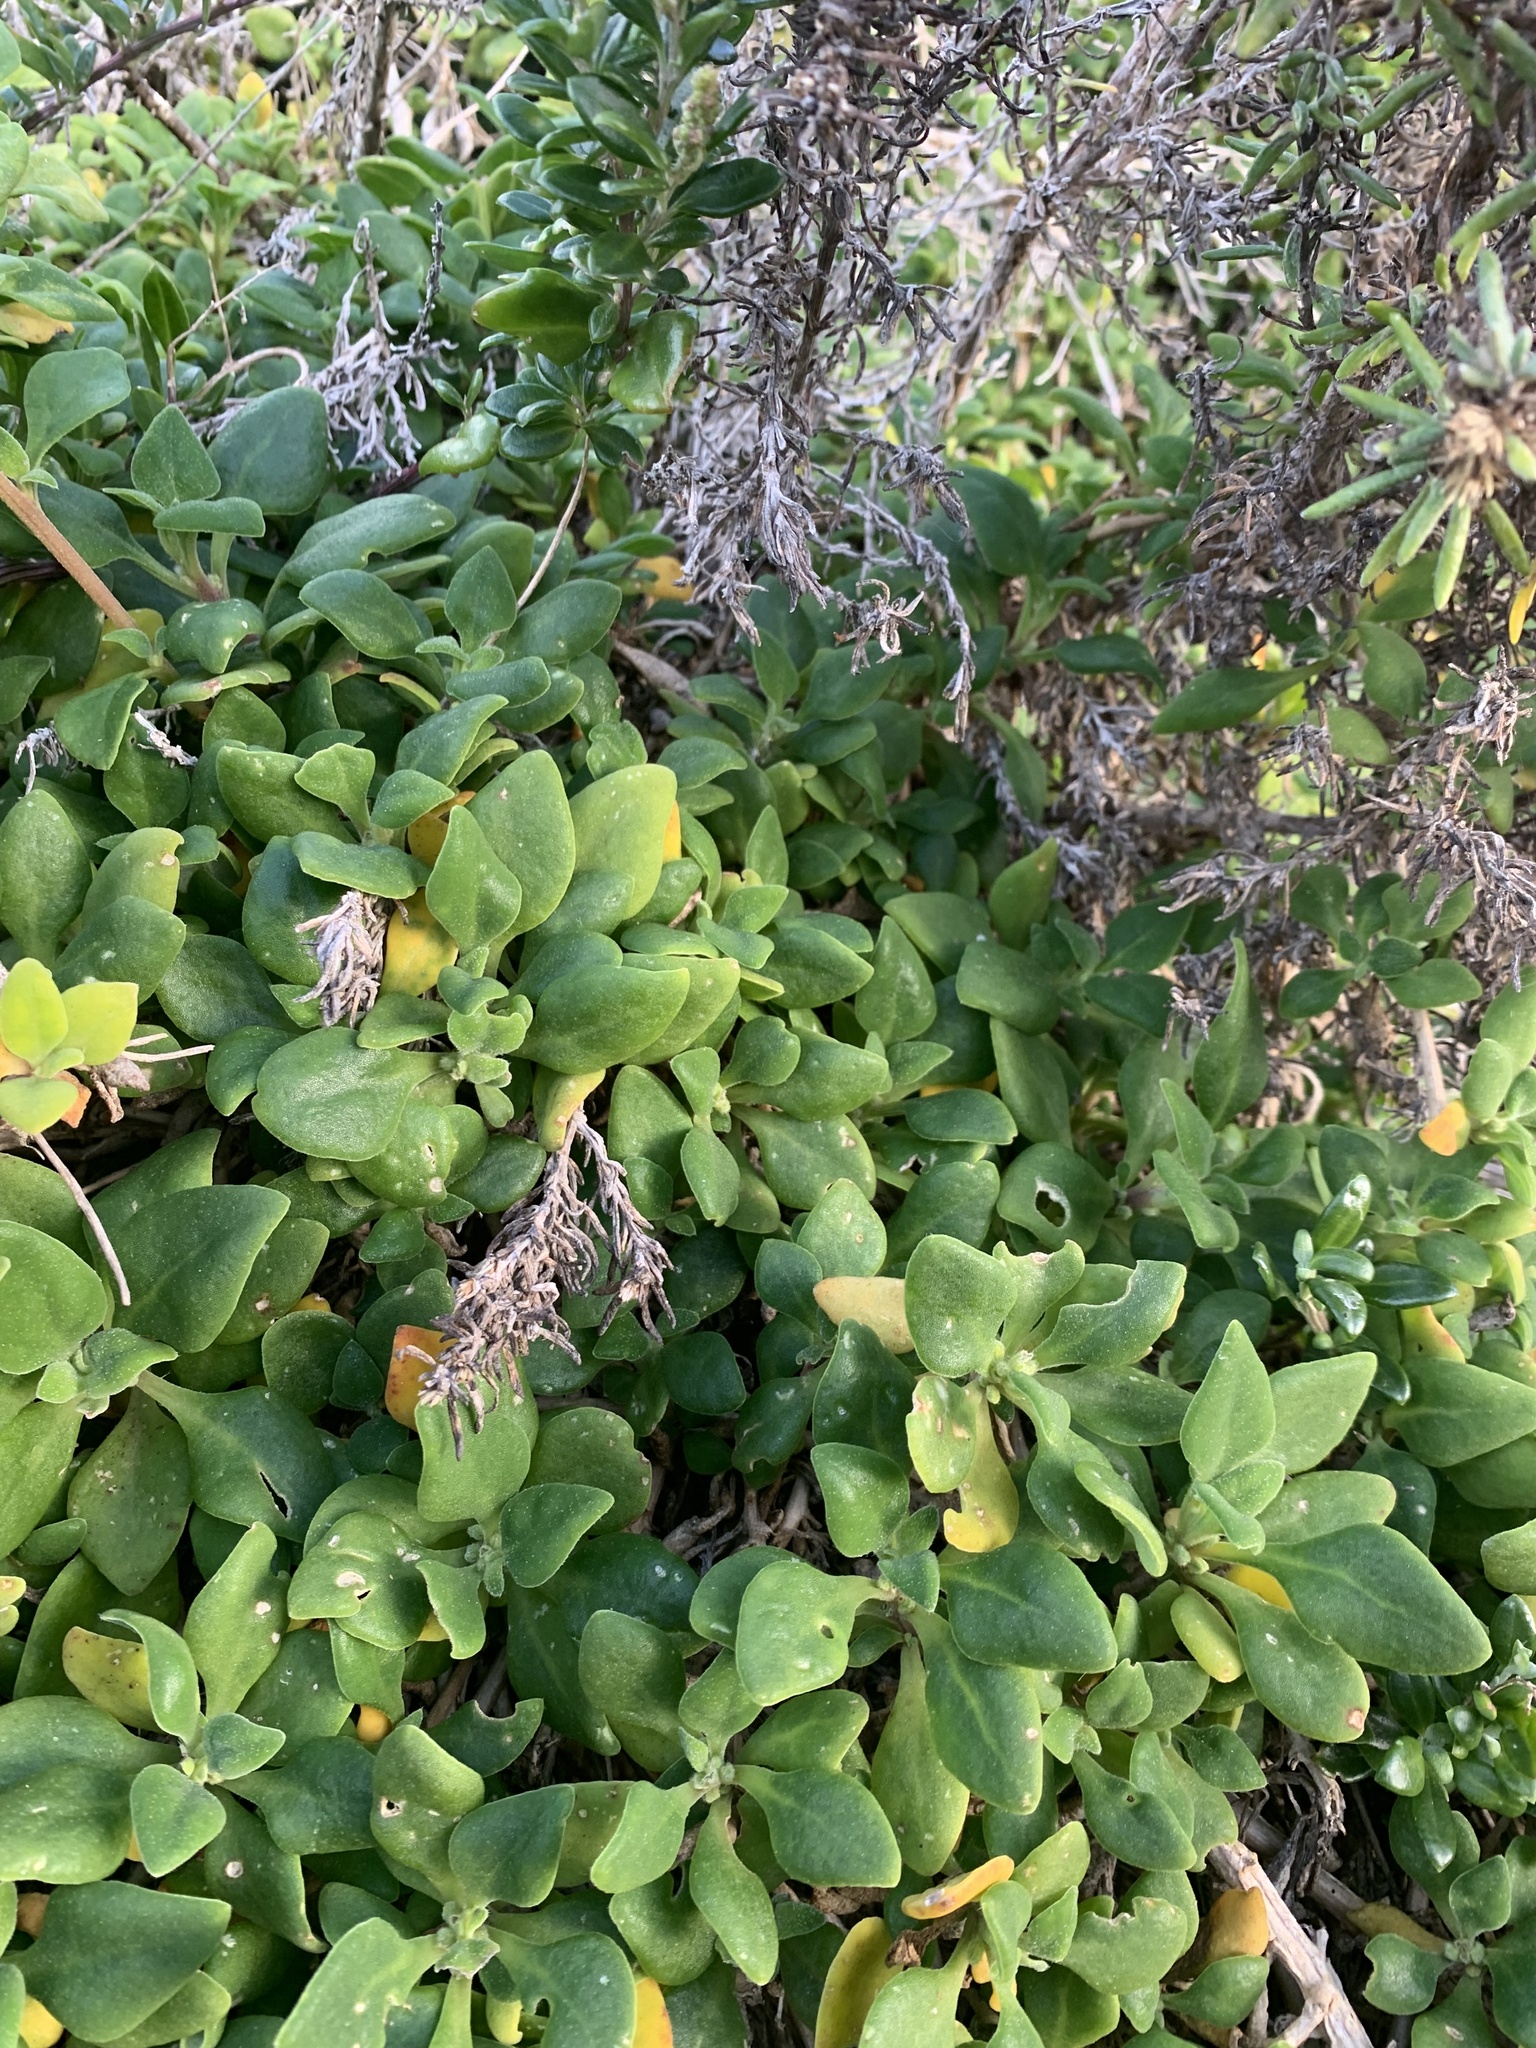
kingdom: Plantae
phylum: Tracheophyta
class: Magnoliopsida
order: Caryophyllales
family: Amaranthaceae
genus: Chenopodium
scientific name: Chenopodium candolleanum
